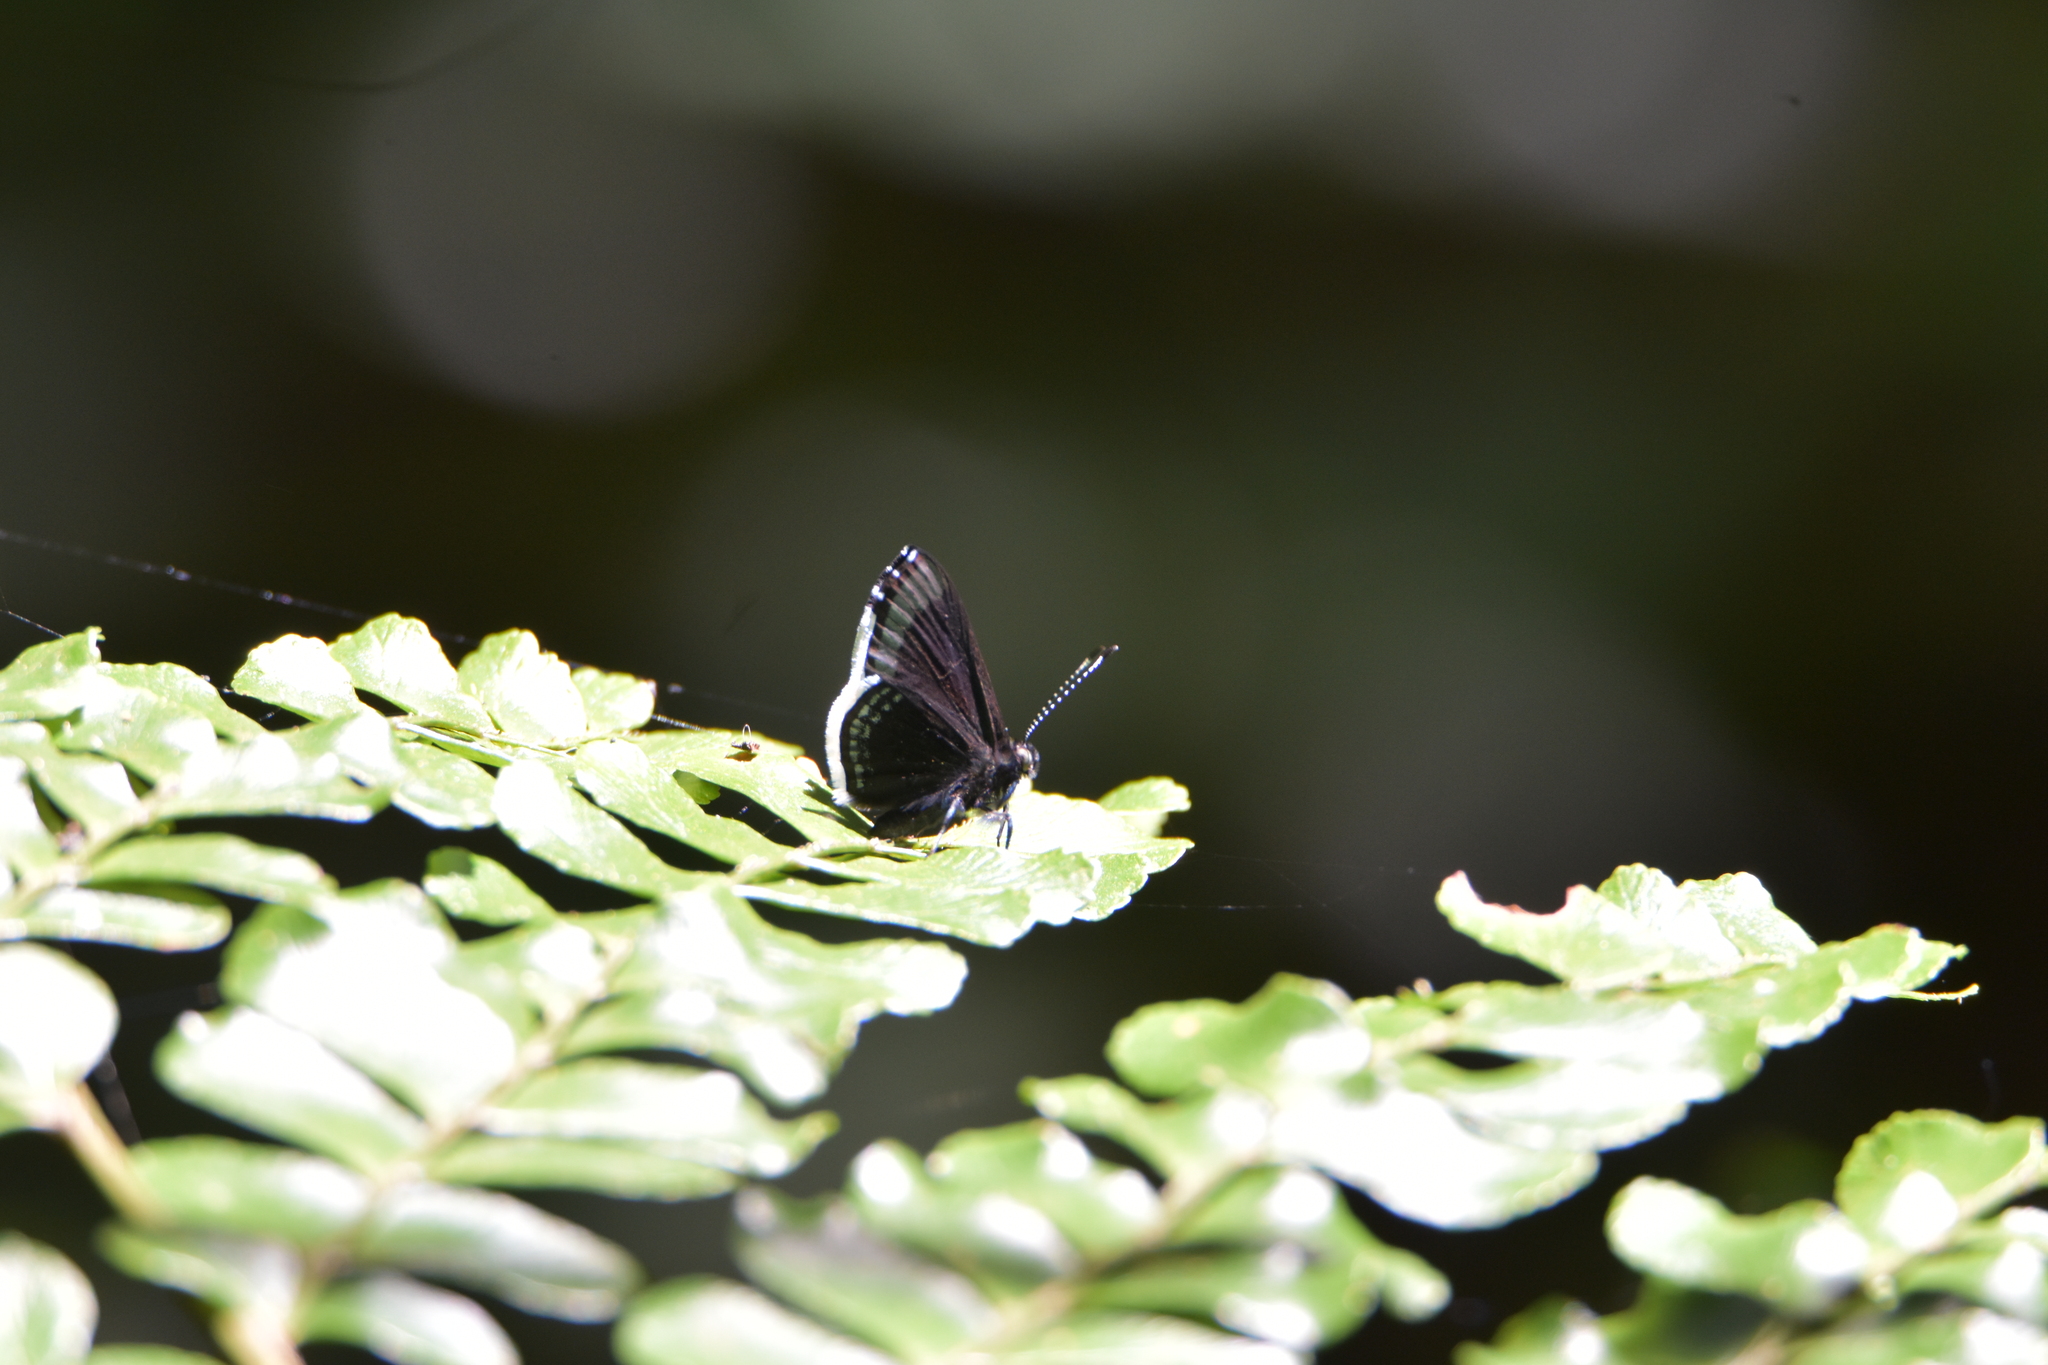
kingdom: Animalia
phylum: Arthropoda
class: Insecta
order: Lepidoptera
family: Riodinidae
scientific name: Riodinidae
